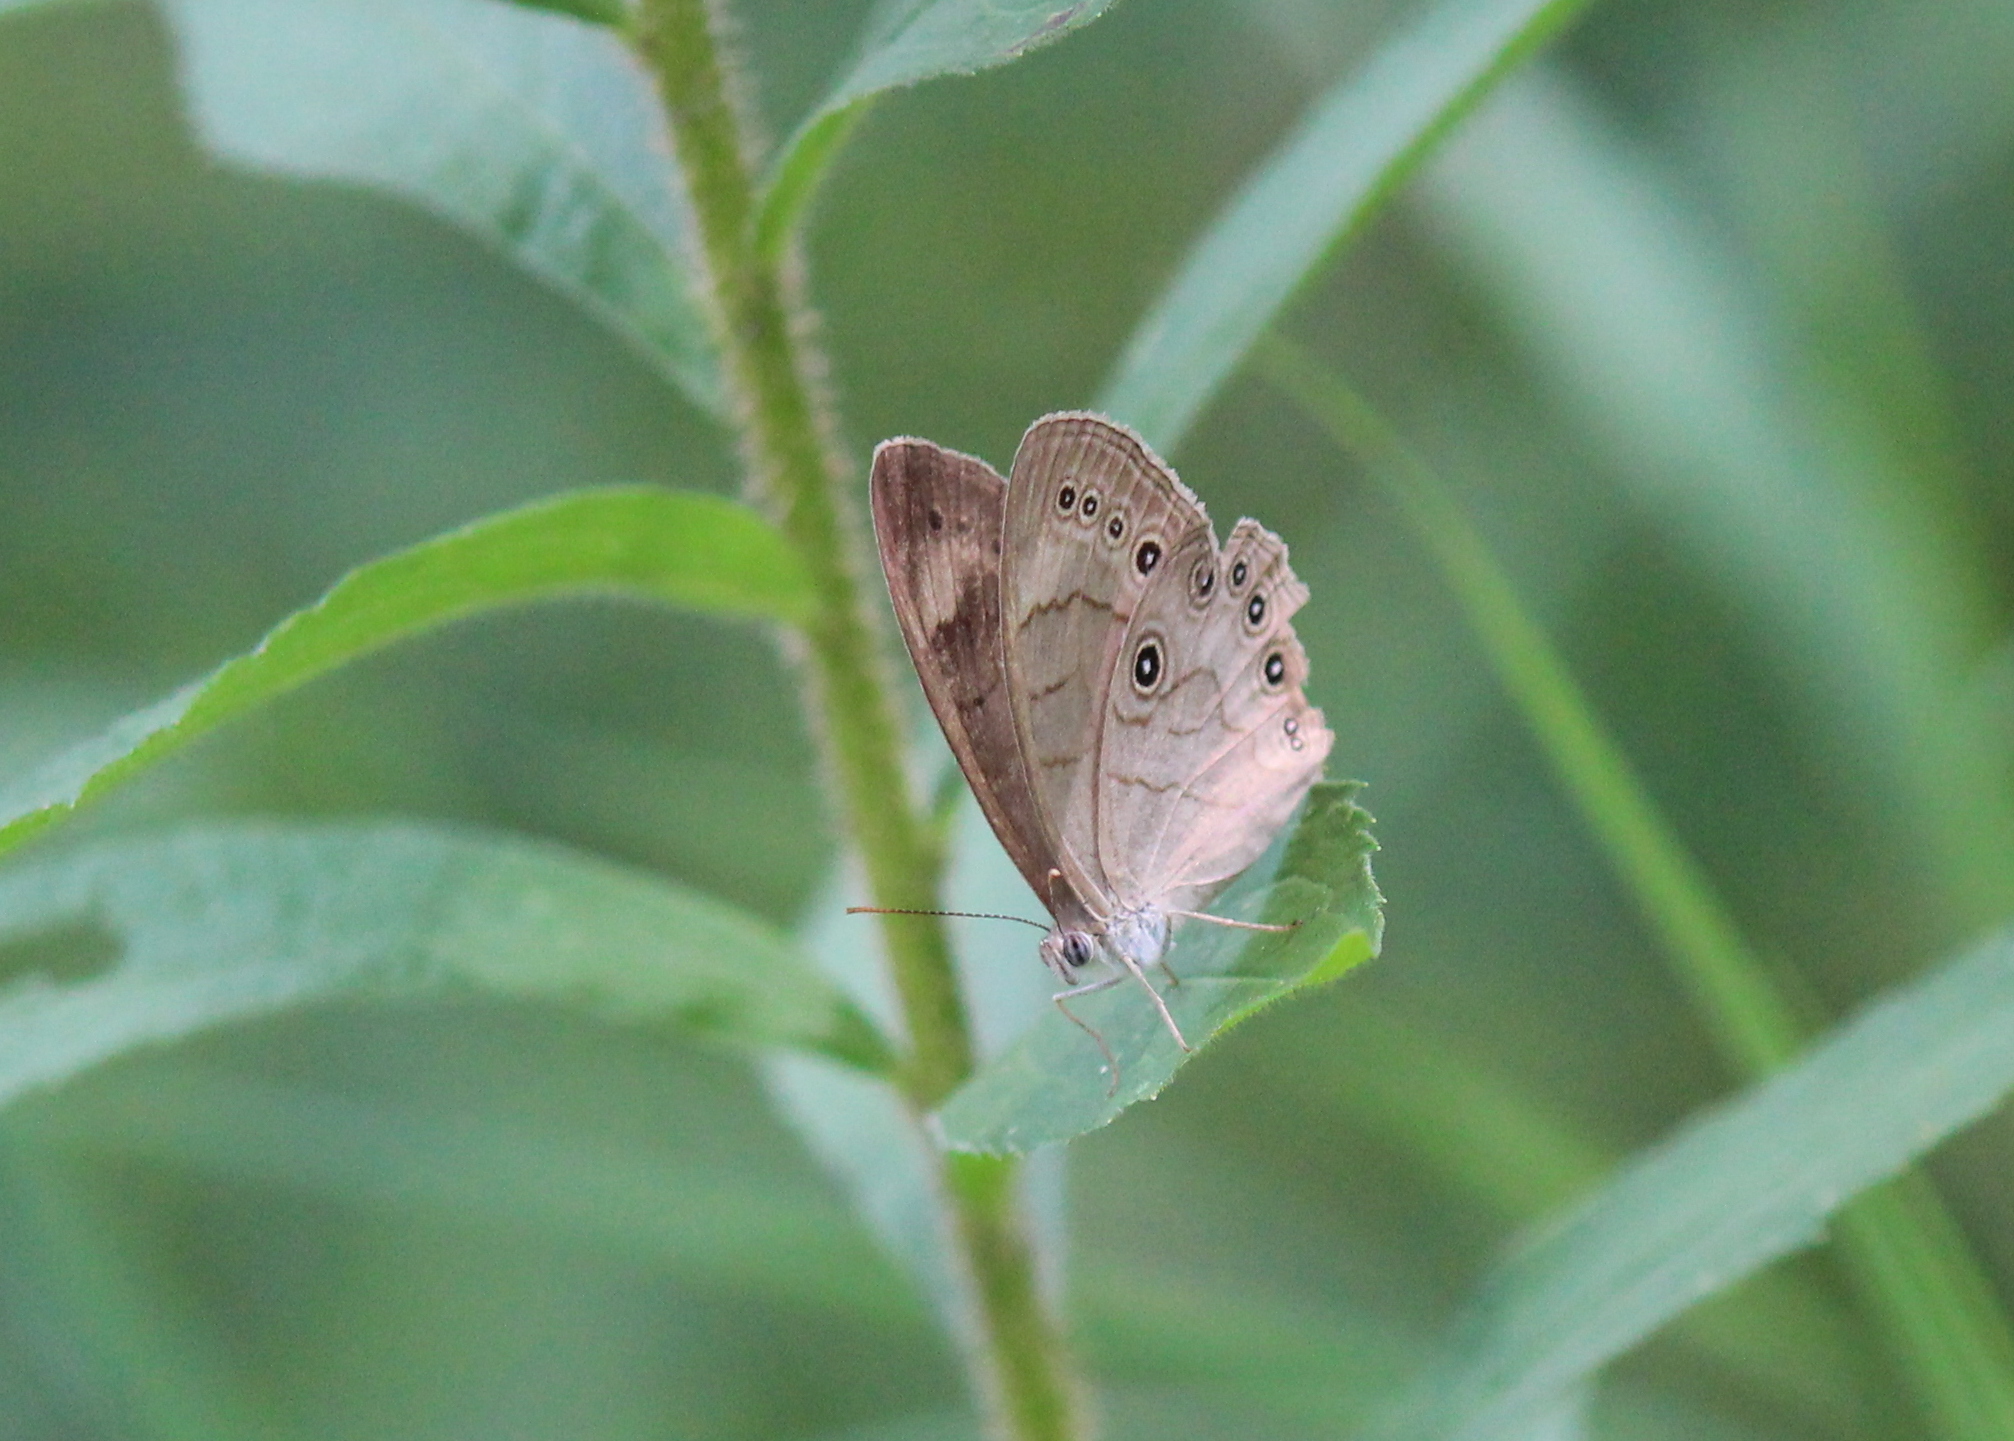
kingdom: Animalia
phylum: Arthropoda
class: Insecta
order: Lepidoptera
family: Nymphalidae
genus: Lethe
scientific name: Lethe eurydice
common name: Eyed brown
